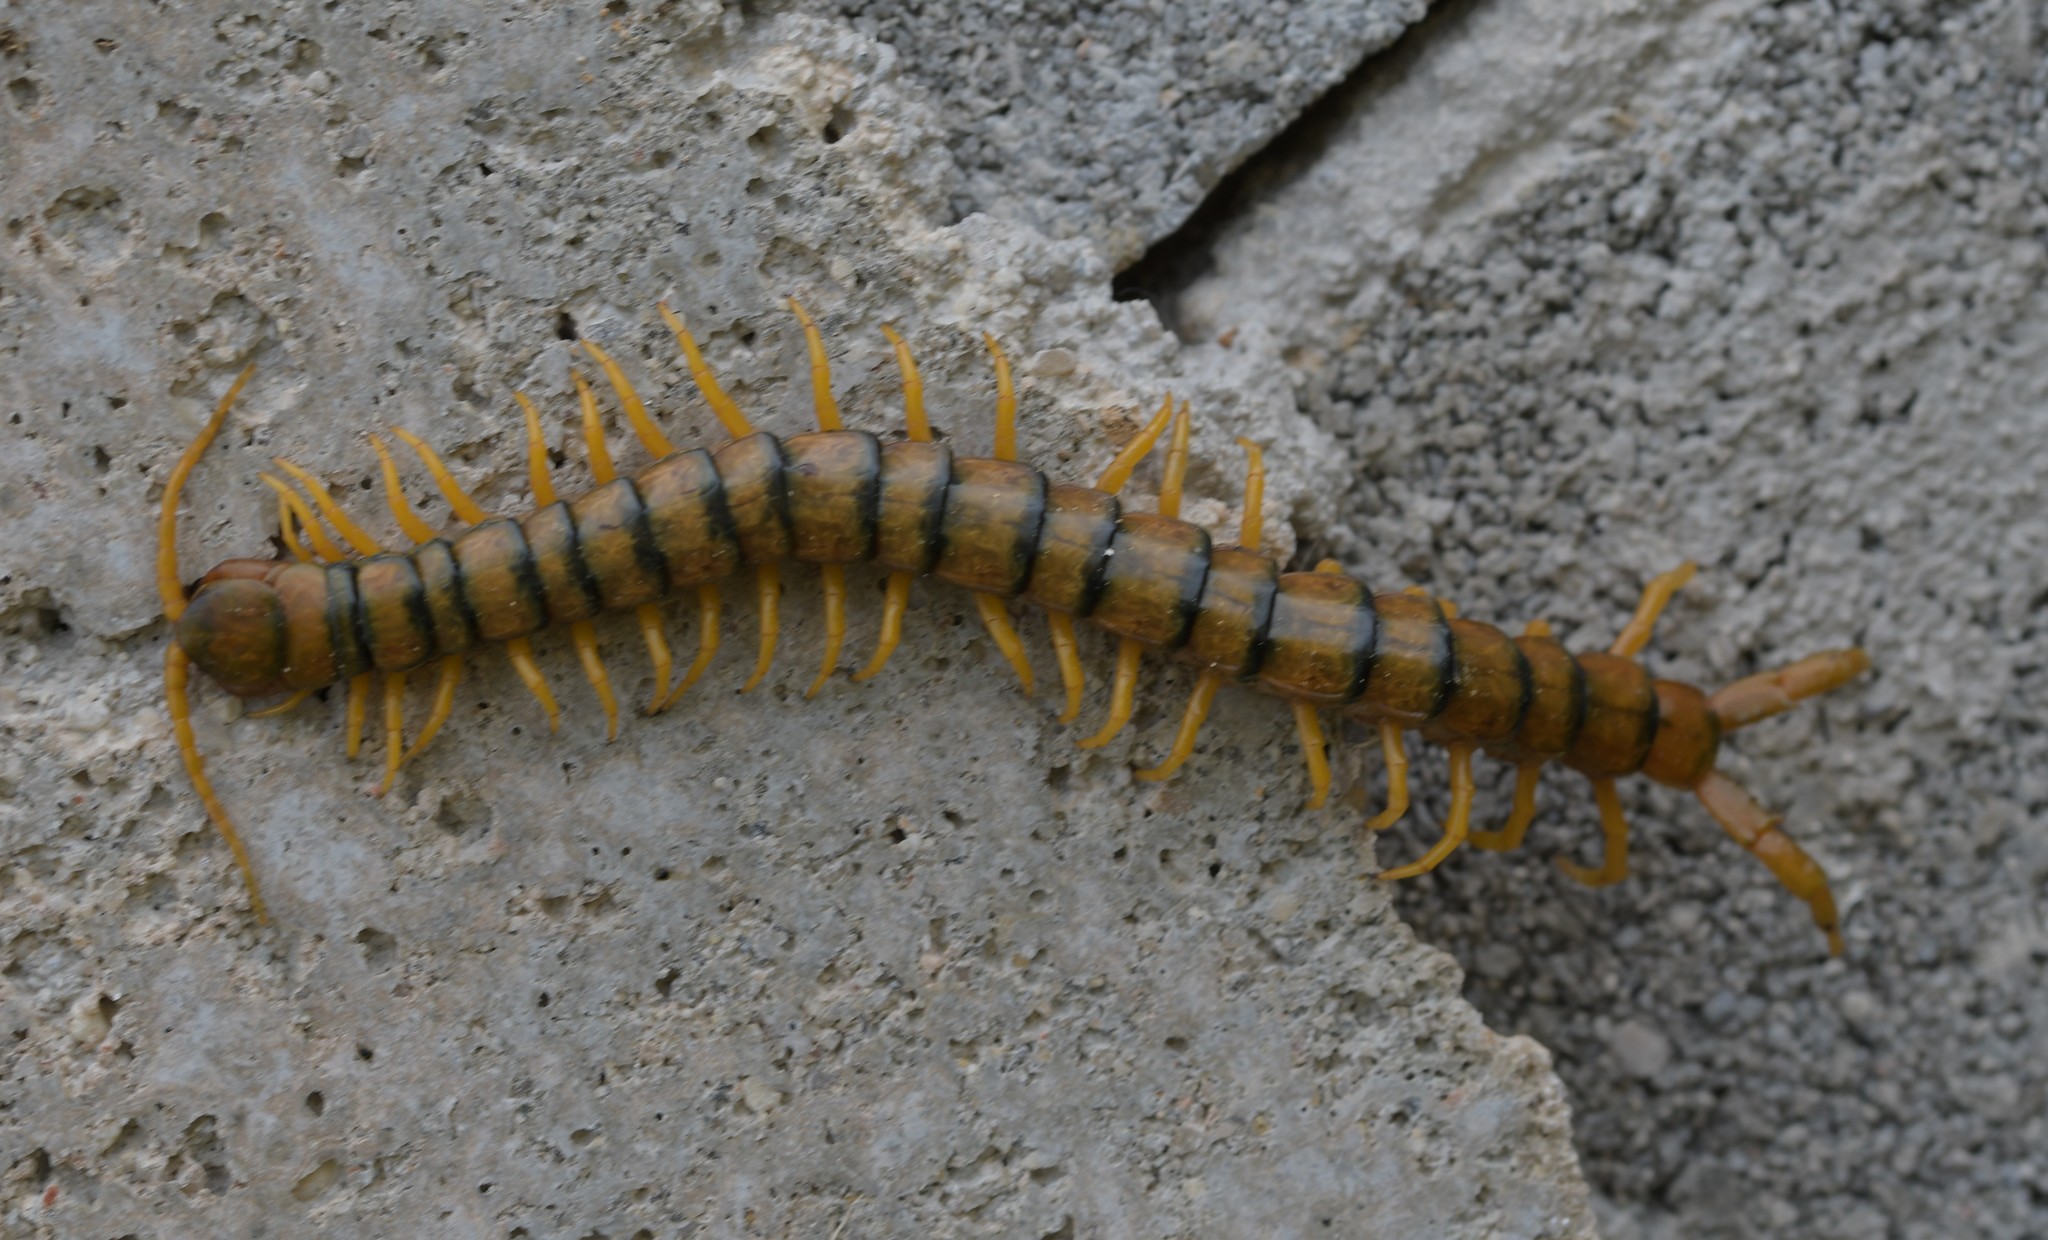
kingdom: Animalia
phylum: Arthropoda
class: Chilopoda
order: Scolopendromorpha
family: Scolopendridae
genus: Scolopendra
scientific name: Scolopendra cingulata
